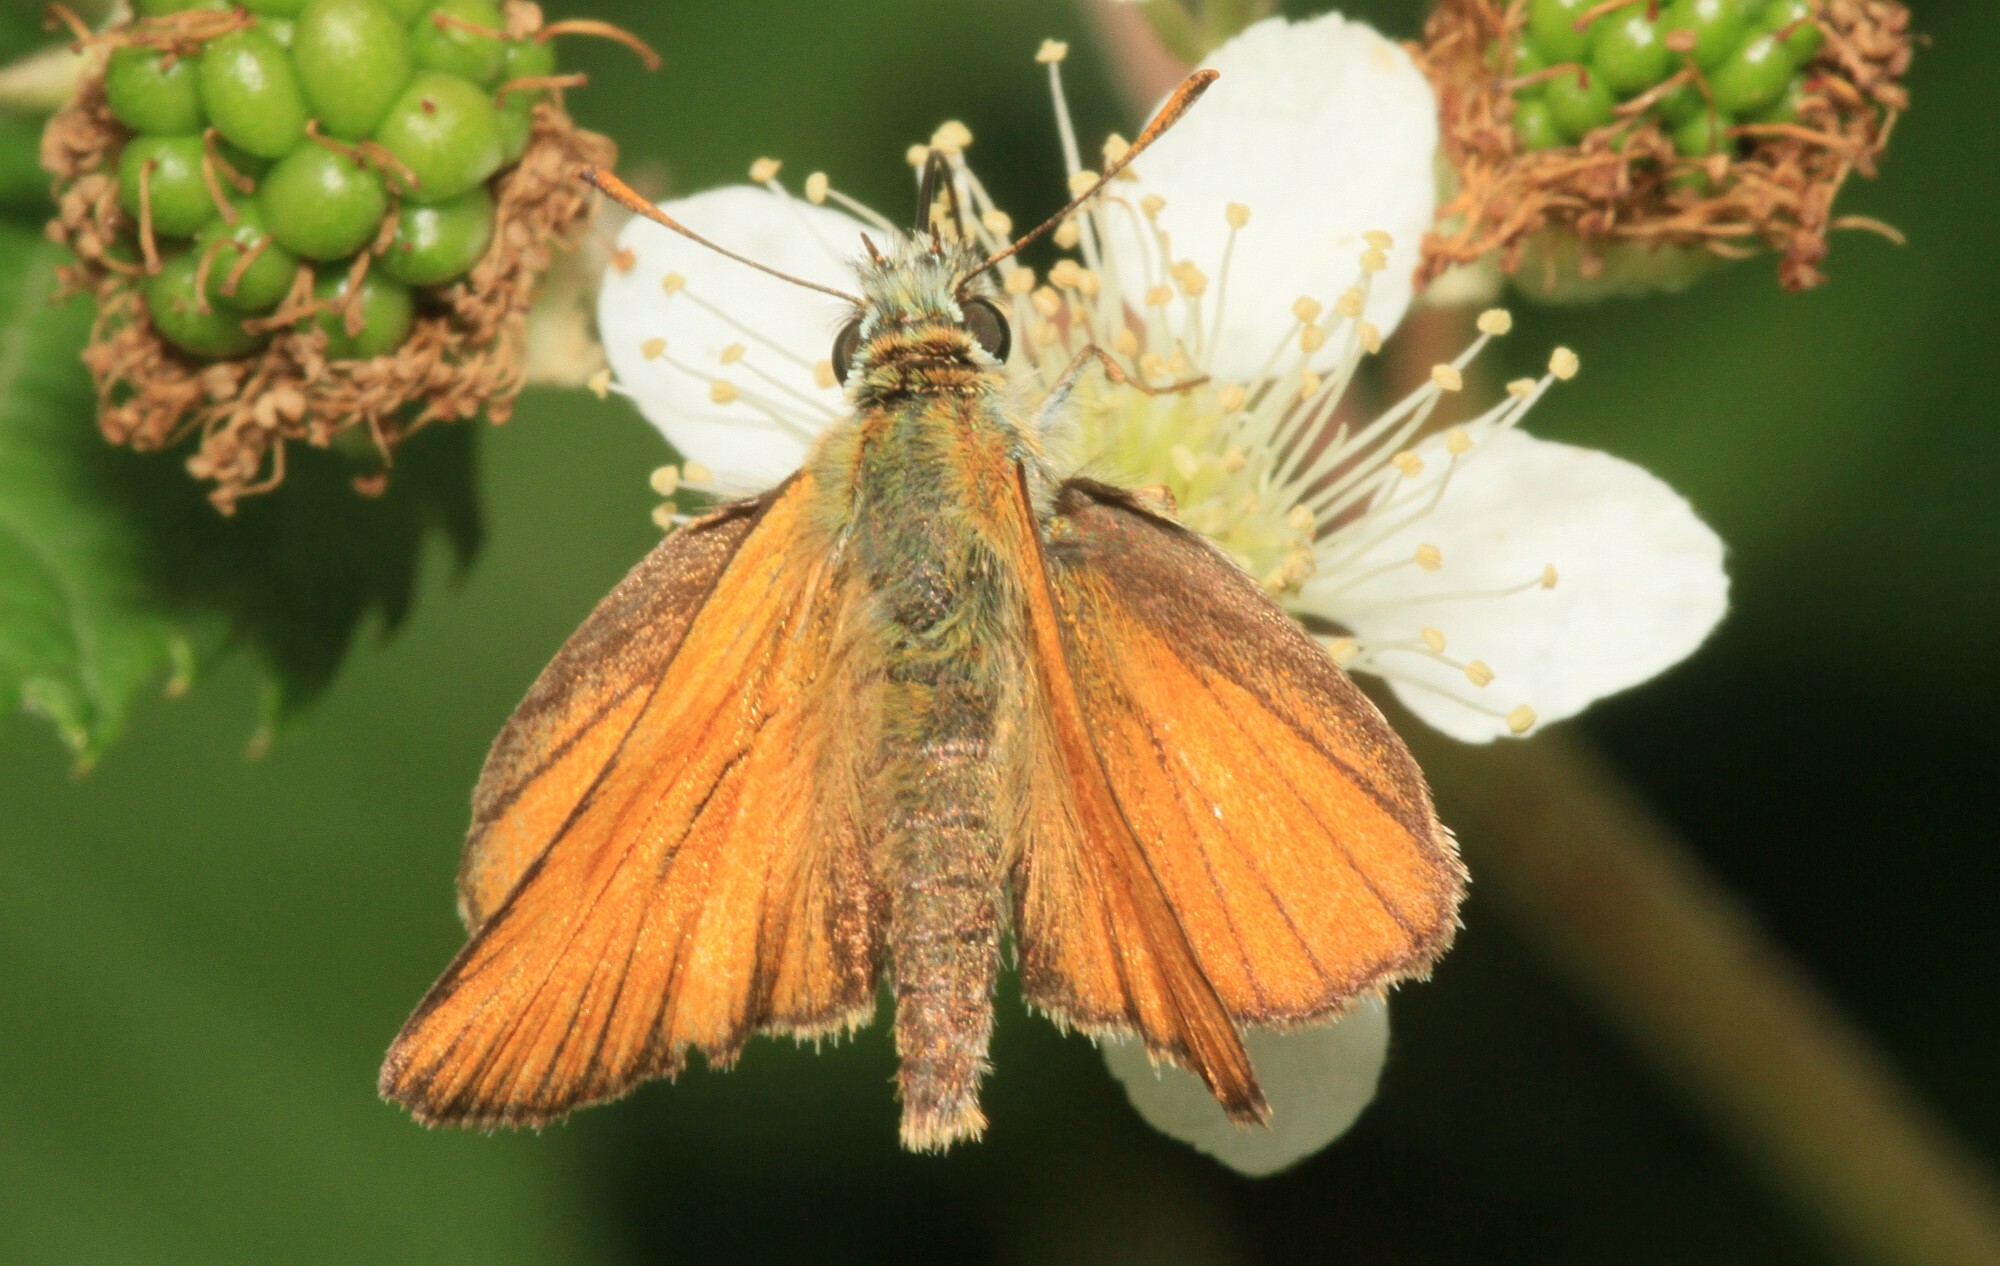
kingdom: Animalia
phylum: Arthropoda
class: Insecta
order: Lepidoptera
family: Hesperiidae
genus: Thymelicus
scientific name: Thymelicus sylvestris
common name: Small skipper
